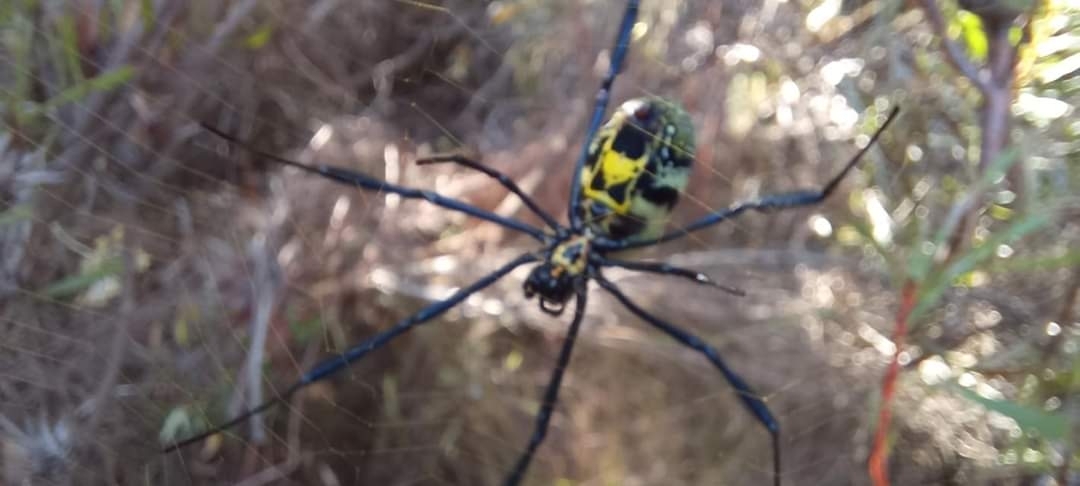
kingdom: Animalia
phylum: Arthropoda
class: Arachnida
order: Araneae
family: Araneidae
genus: Trichonephila
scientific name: Trichonephila fenestrata
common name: Hairy golden orb weaver
